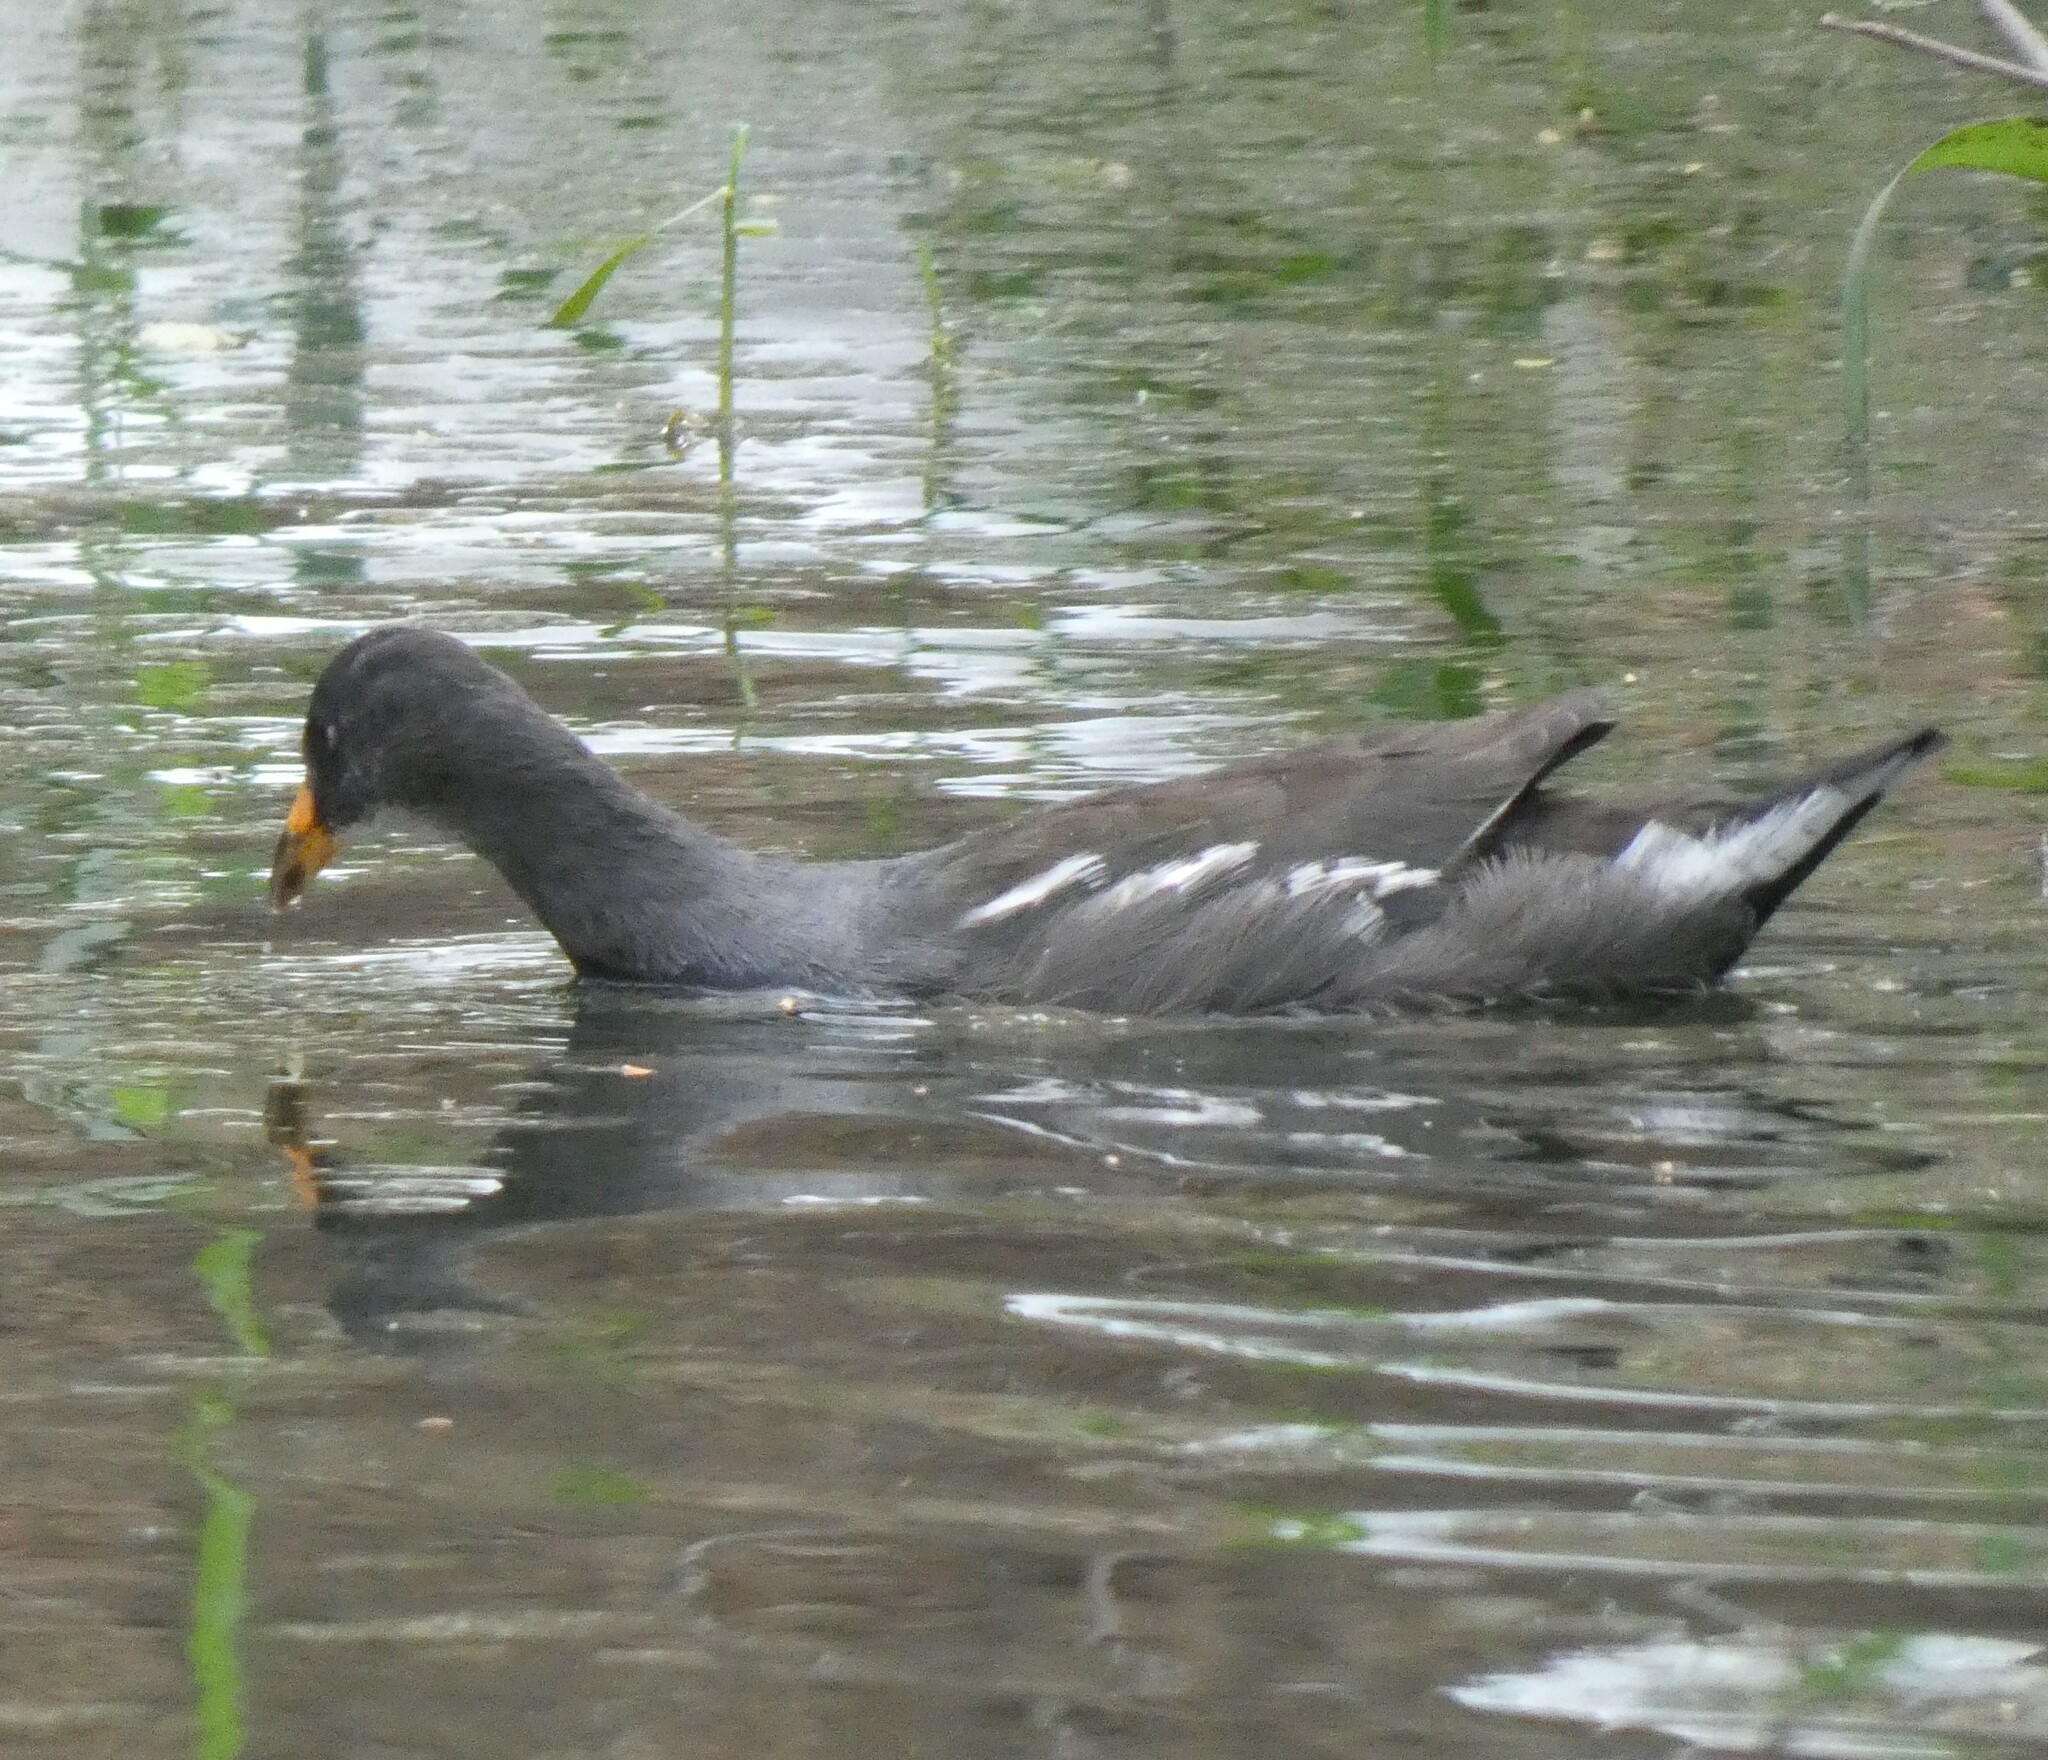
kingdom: Animalia
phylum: Chordata
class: Aves
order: Gruiformes
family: Rallidae
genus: Gallinula
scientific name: Gallinula chloropus
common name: Common moorhen
